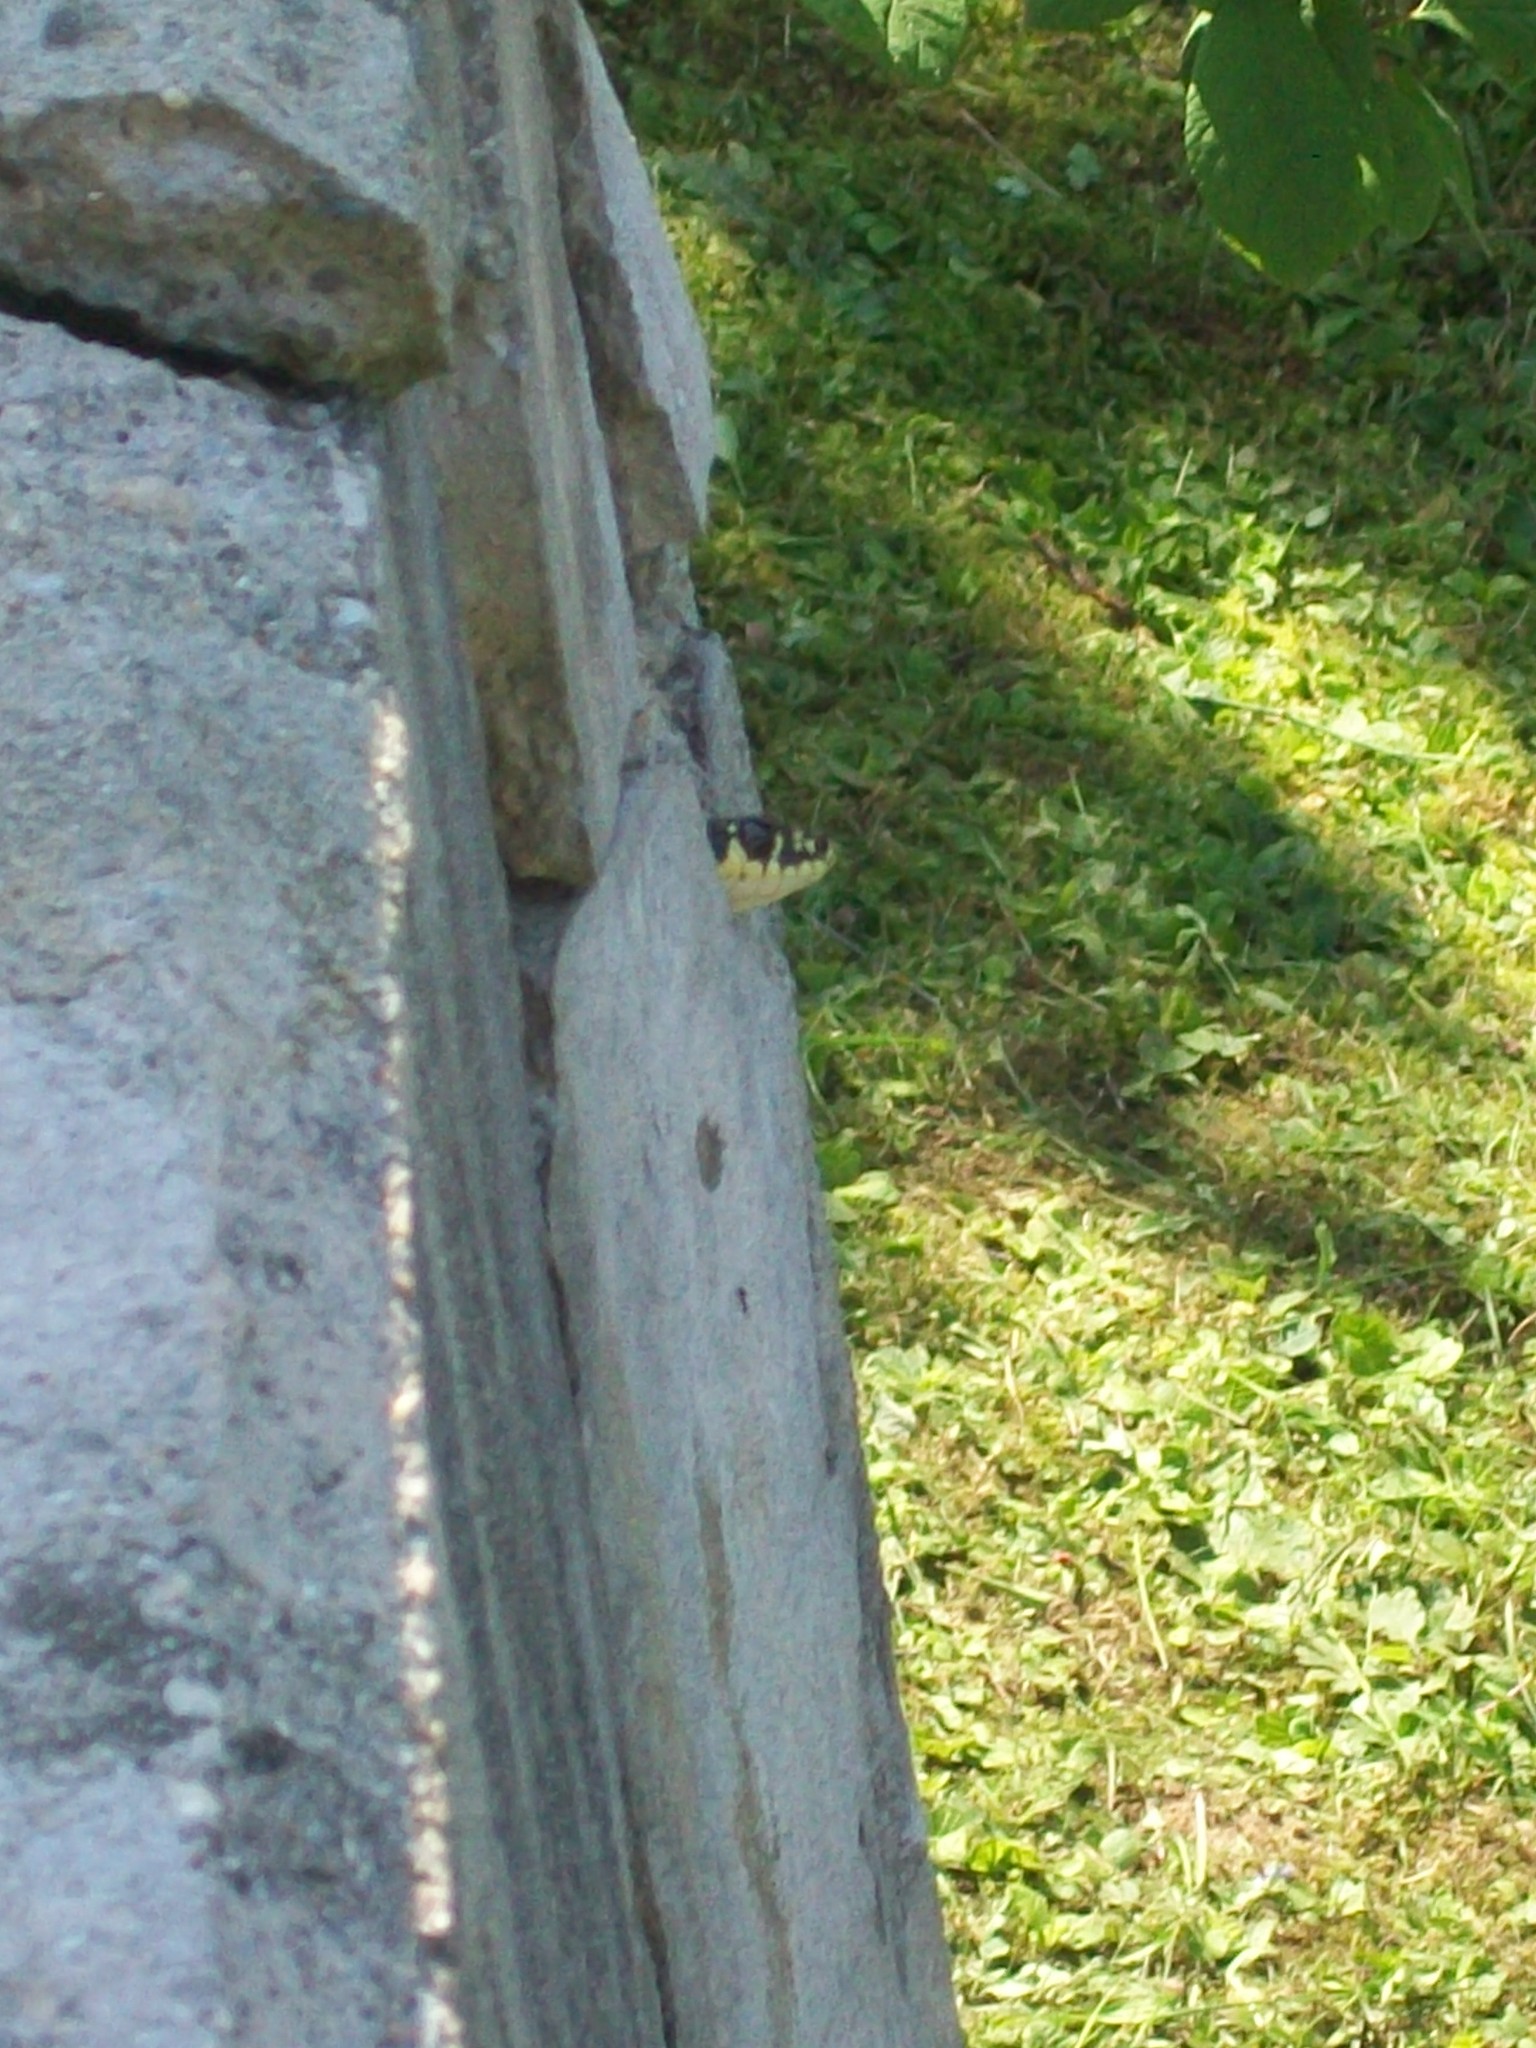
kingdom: Animalia
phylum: Chordata
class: Squamata
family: Colubridae
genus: Hierophis
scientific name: Hierophis viridiflavus
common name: Green whip snake
